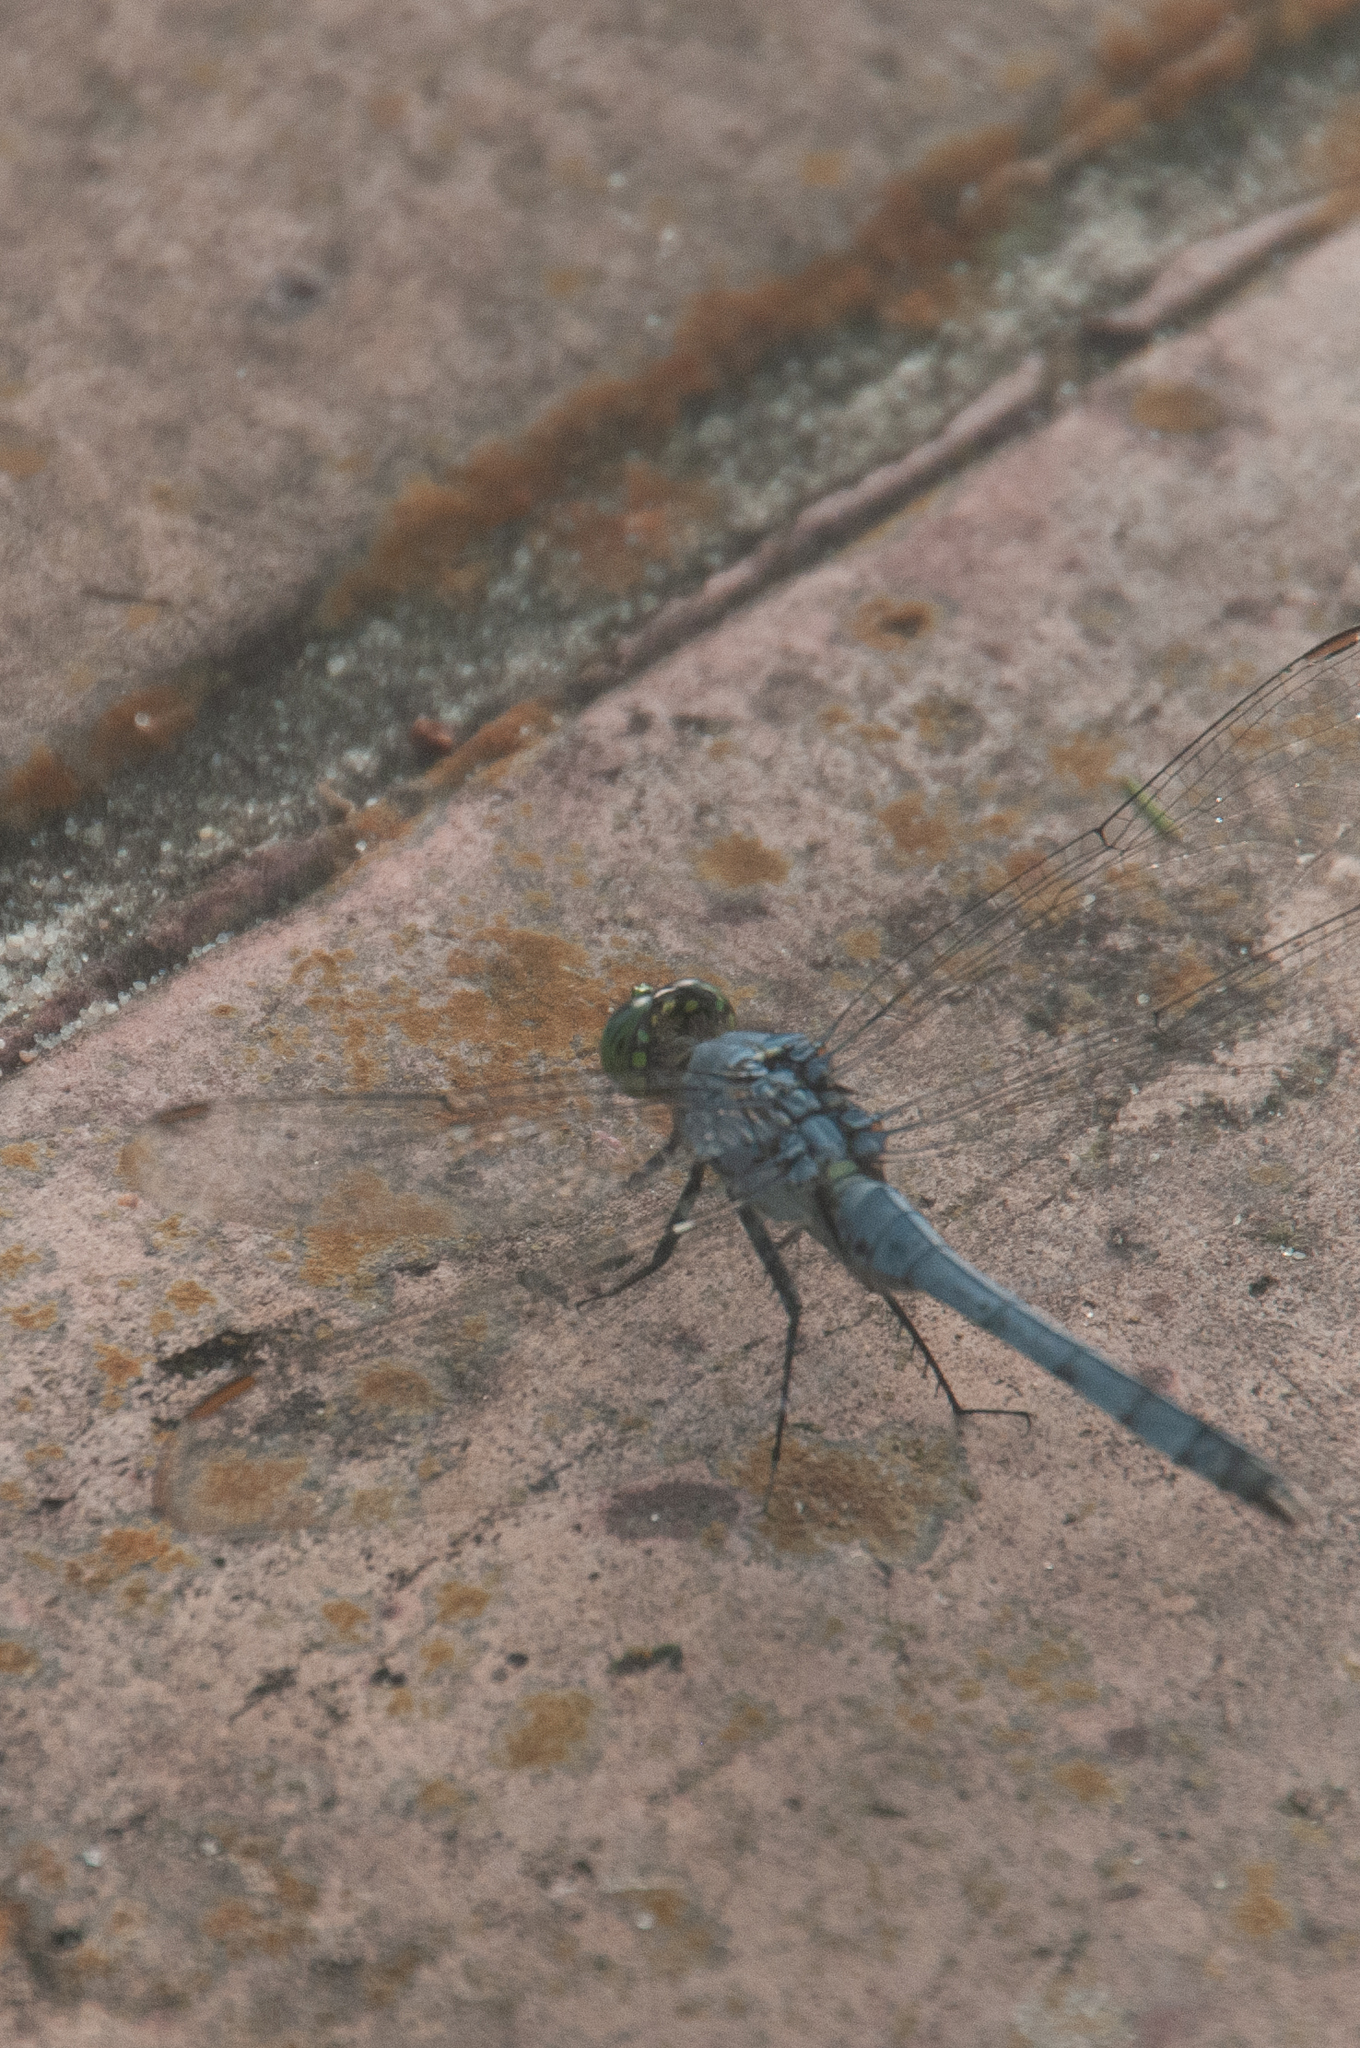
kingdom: Animalia
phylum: Arthropoda
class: Insecta
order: Odonata
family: Libellulidae
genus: Erythemis
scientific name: Erythemis simplicicollis
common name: Eastern pondhawk
